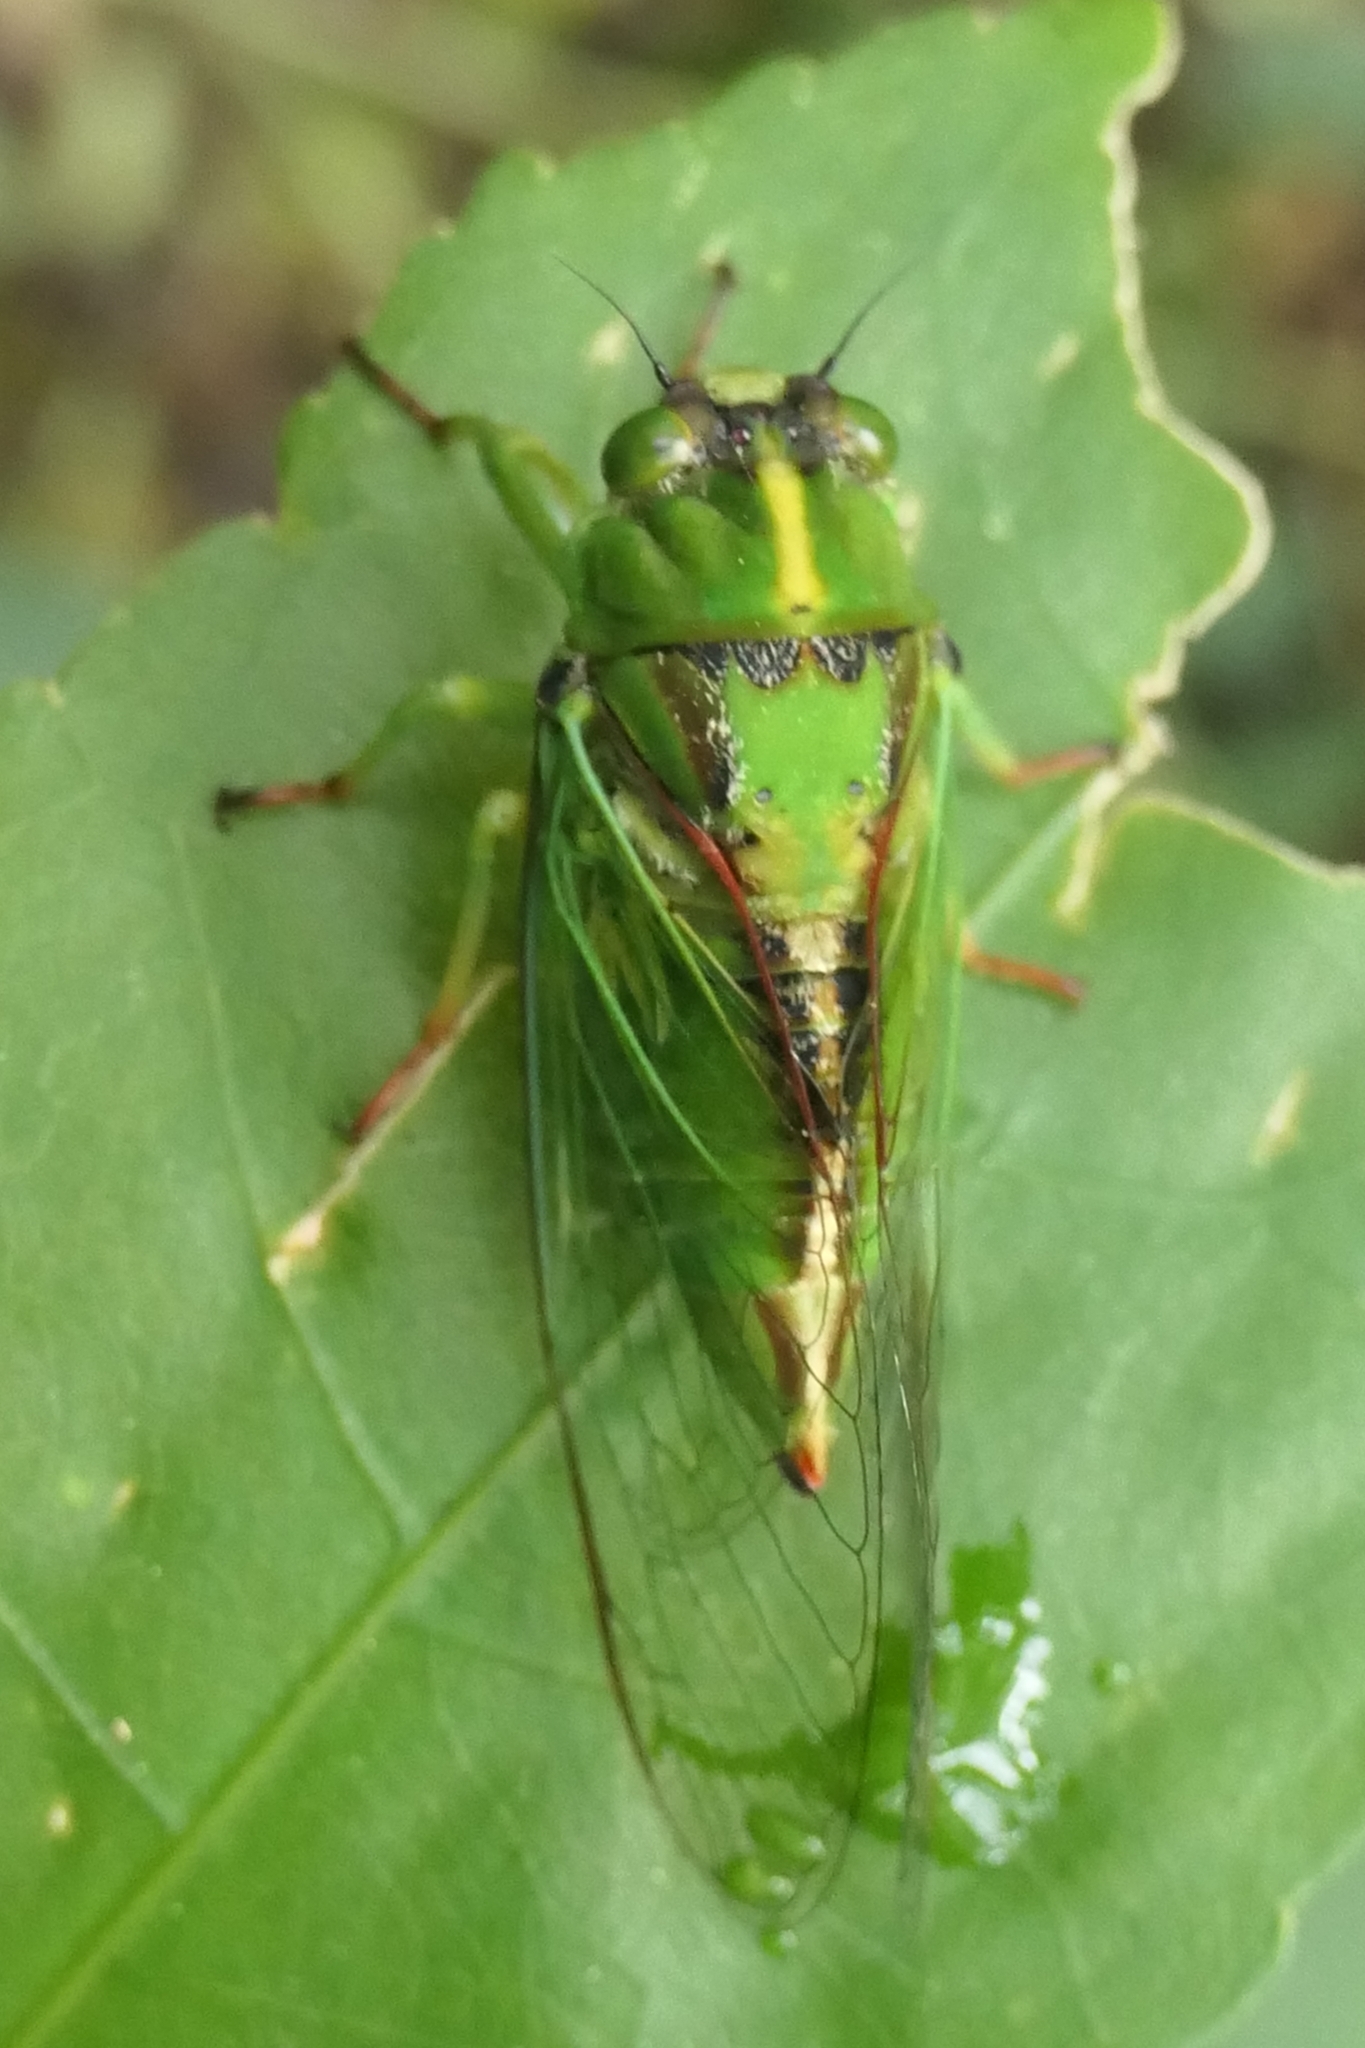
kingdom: Animalia
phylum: Arthropoda
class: Insecta
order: Hemiptera
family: Cicadidae
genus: Kikihia
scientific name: Kikihia subalpina
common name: Chathams cicada
